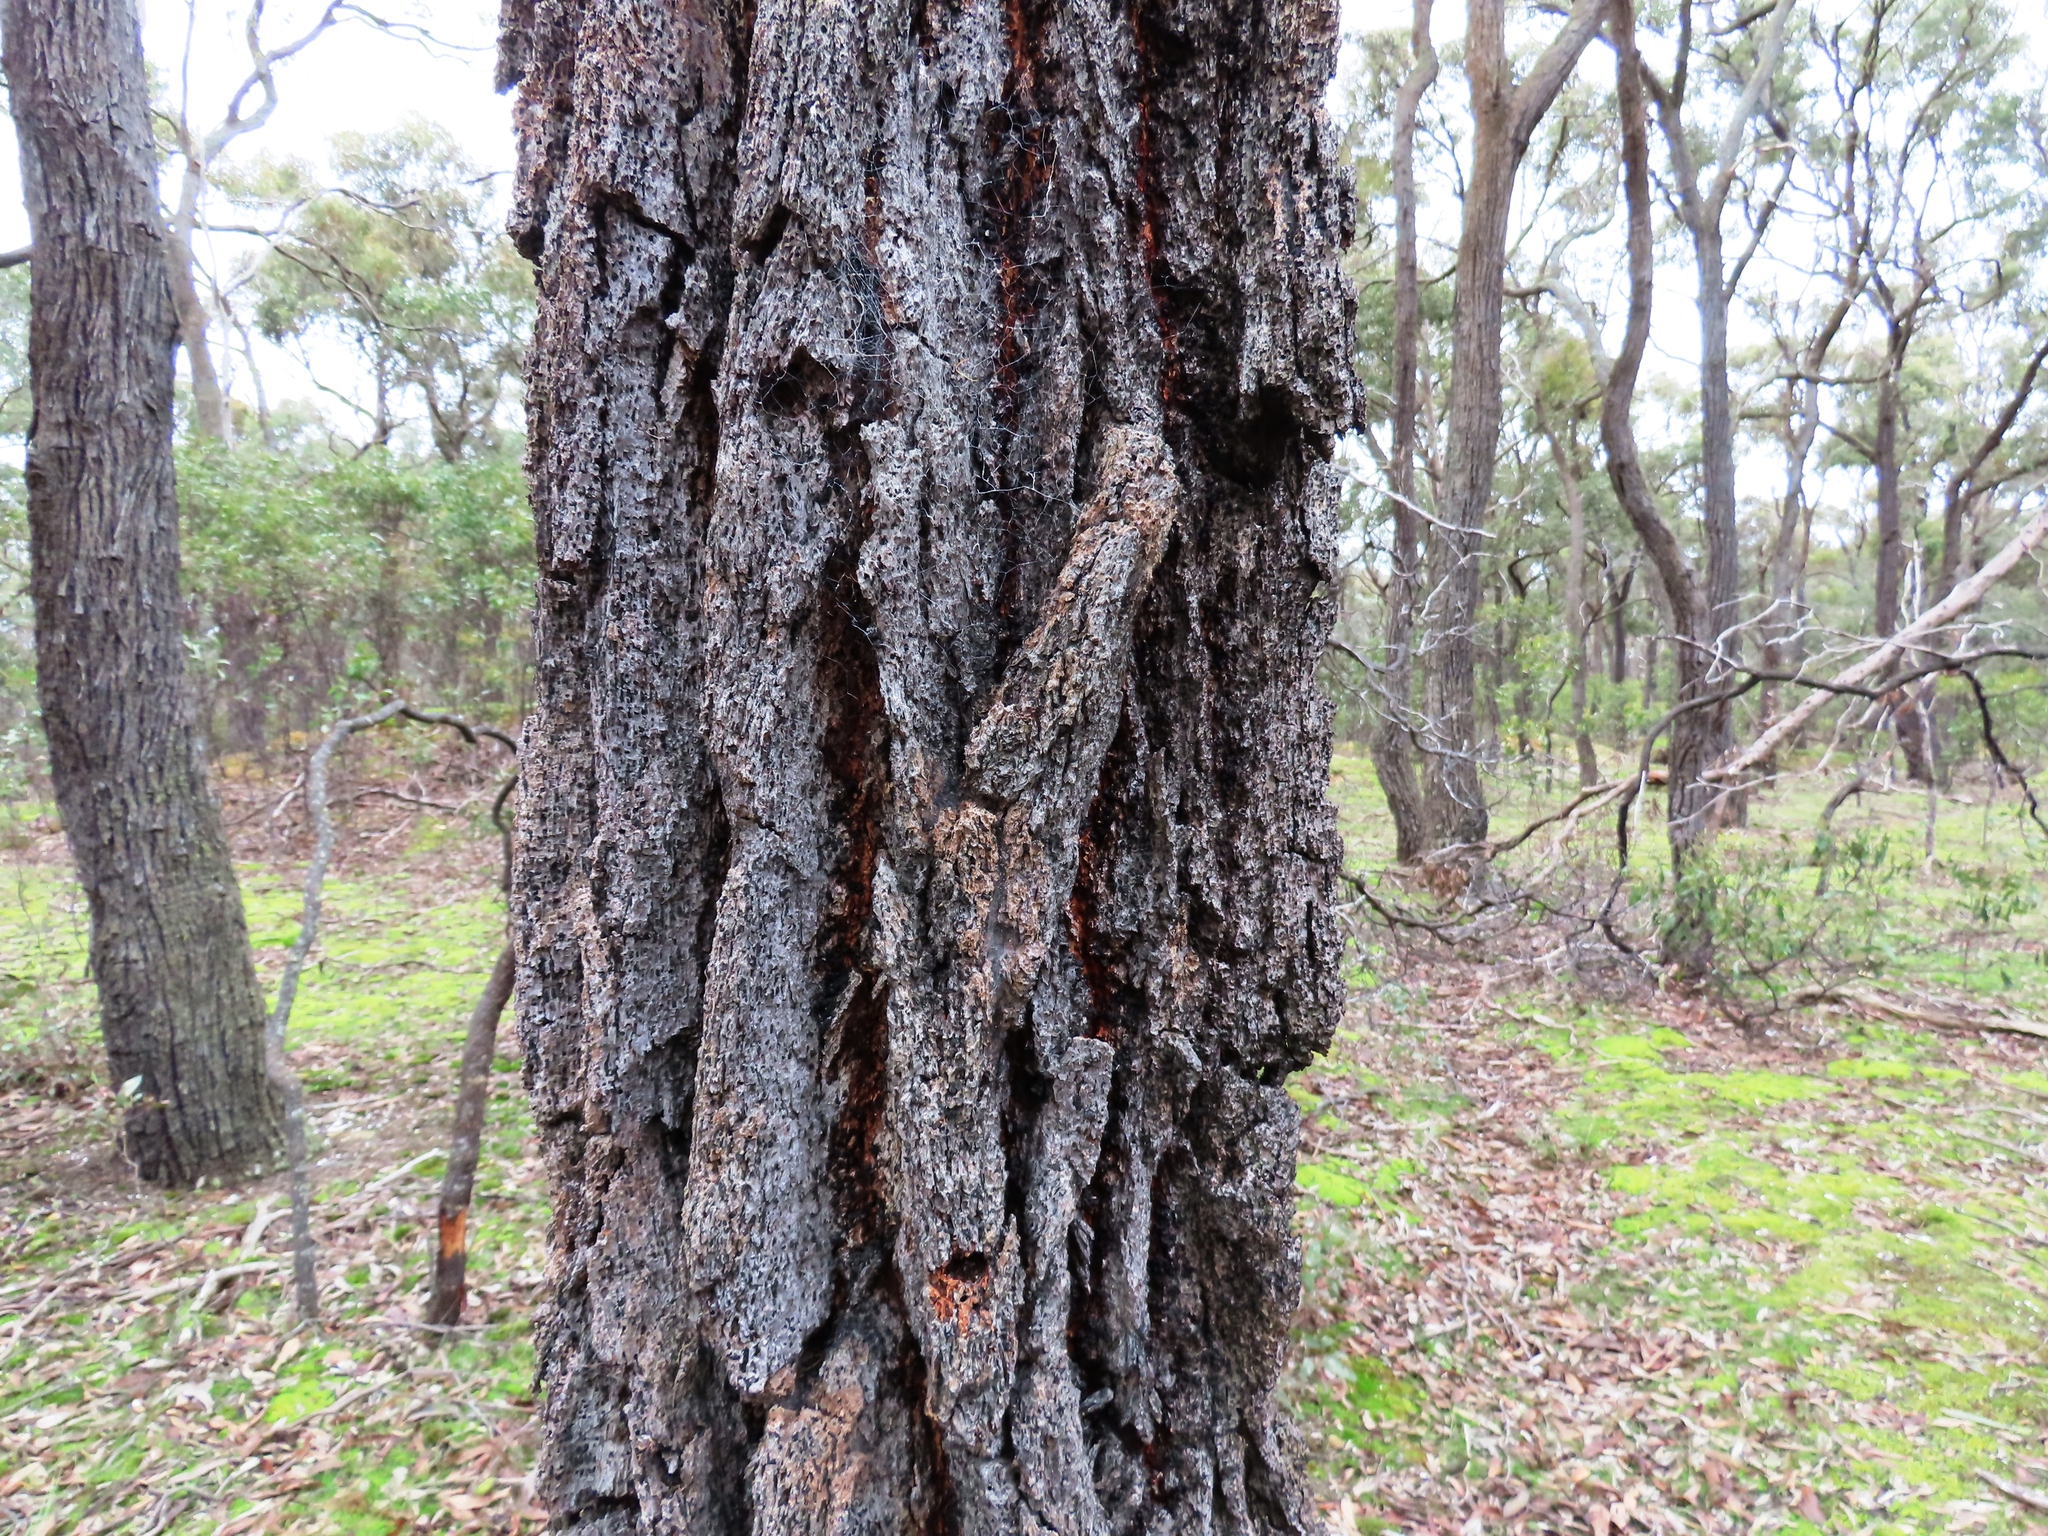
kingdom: Plantae
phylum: Tracheophyta
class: Magnoliopsida
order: Myrtales
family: Myrtaceae
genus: Eucalyptus
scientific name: Eucalyptus tricarpa
